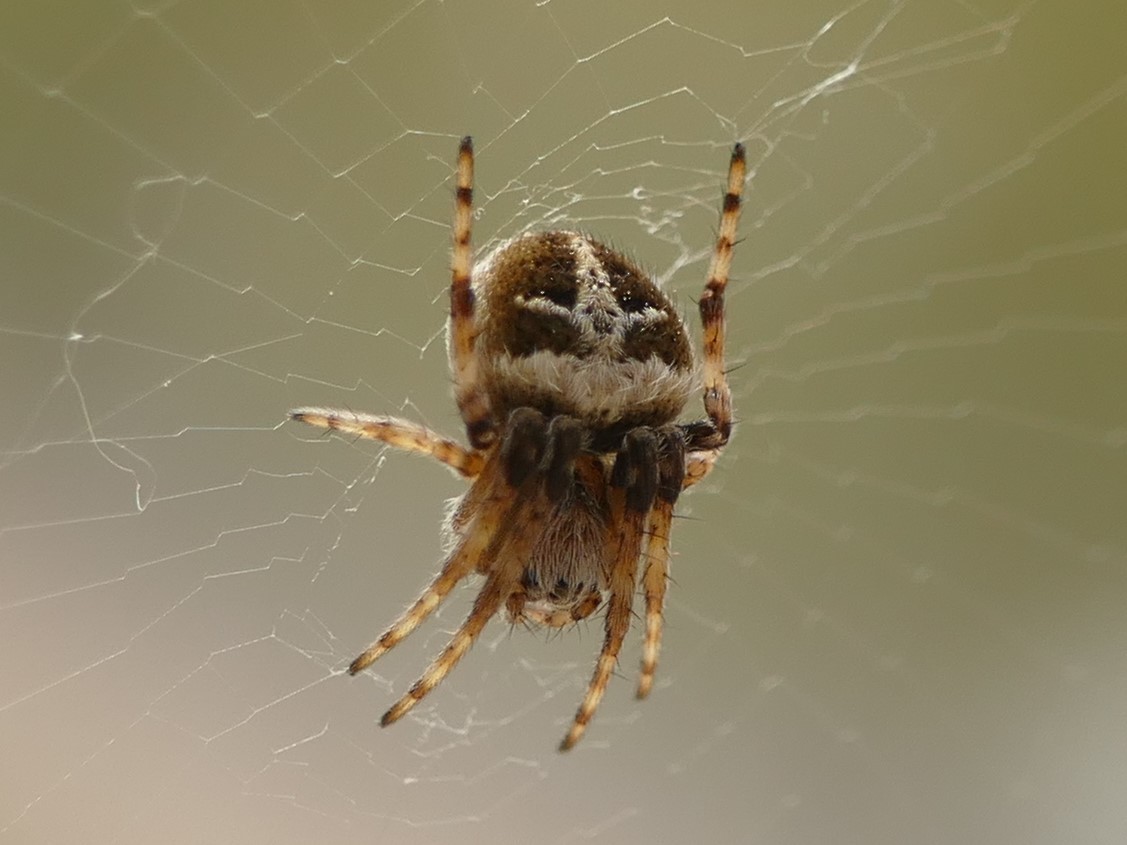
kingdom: Animalia
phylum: Arthropoda
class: Arachnida
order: Araneae
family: Araneidae
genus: Agalenatea
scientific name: Agalenatea redii
